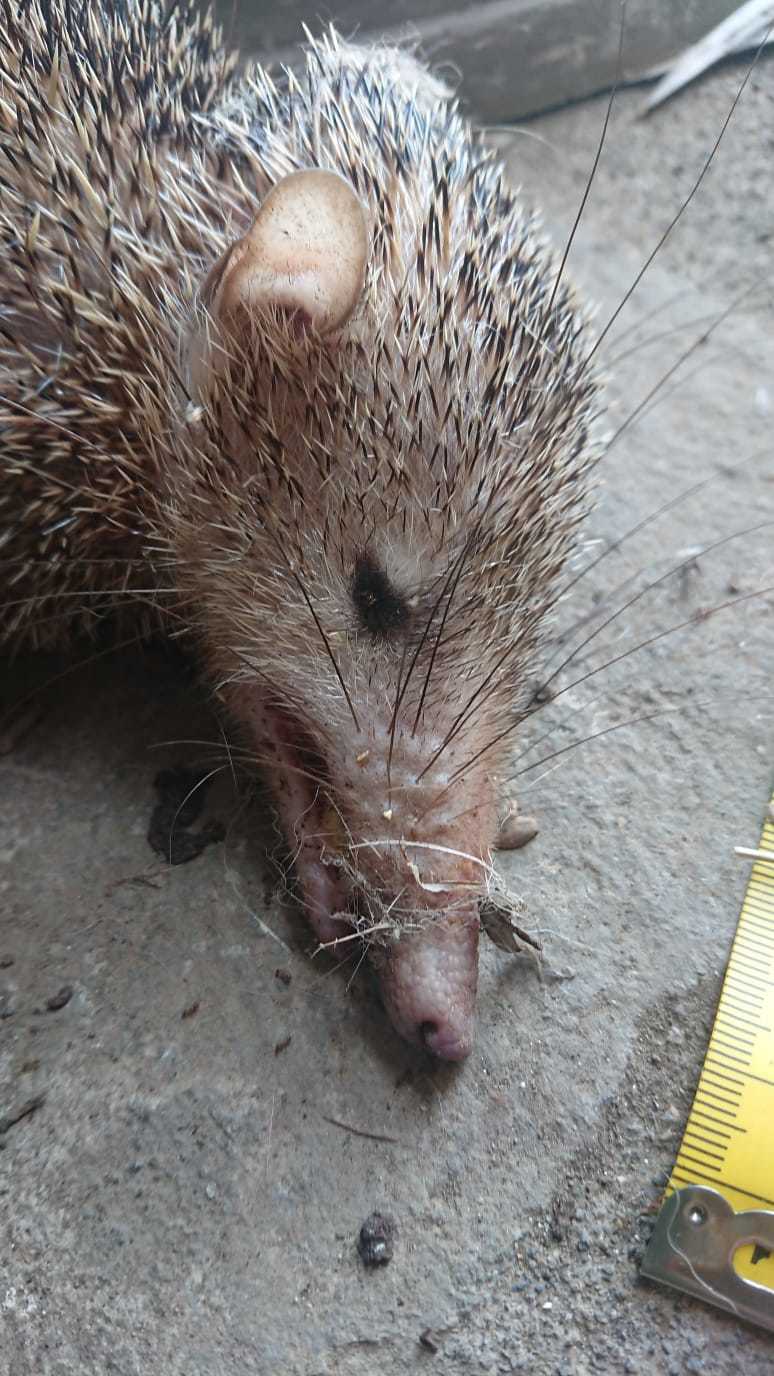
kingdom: Animalia
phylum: Chordata
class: Mammalia
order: Afrosoricida
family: Tenrecidae
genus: Tenrec
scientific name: Tenrec ecaudatus
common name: Common tenrec
